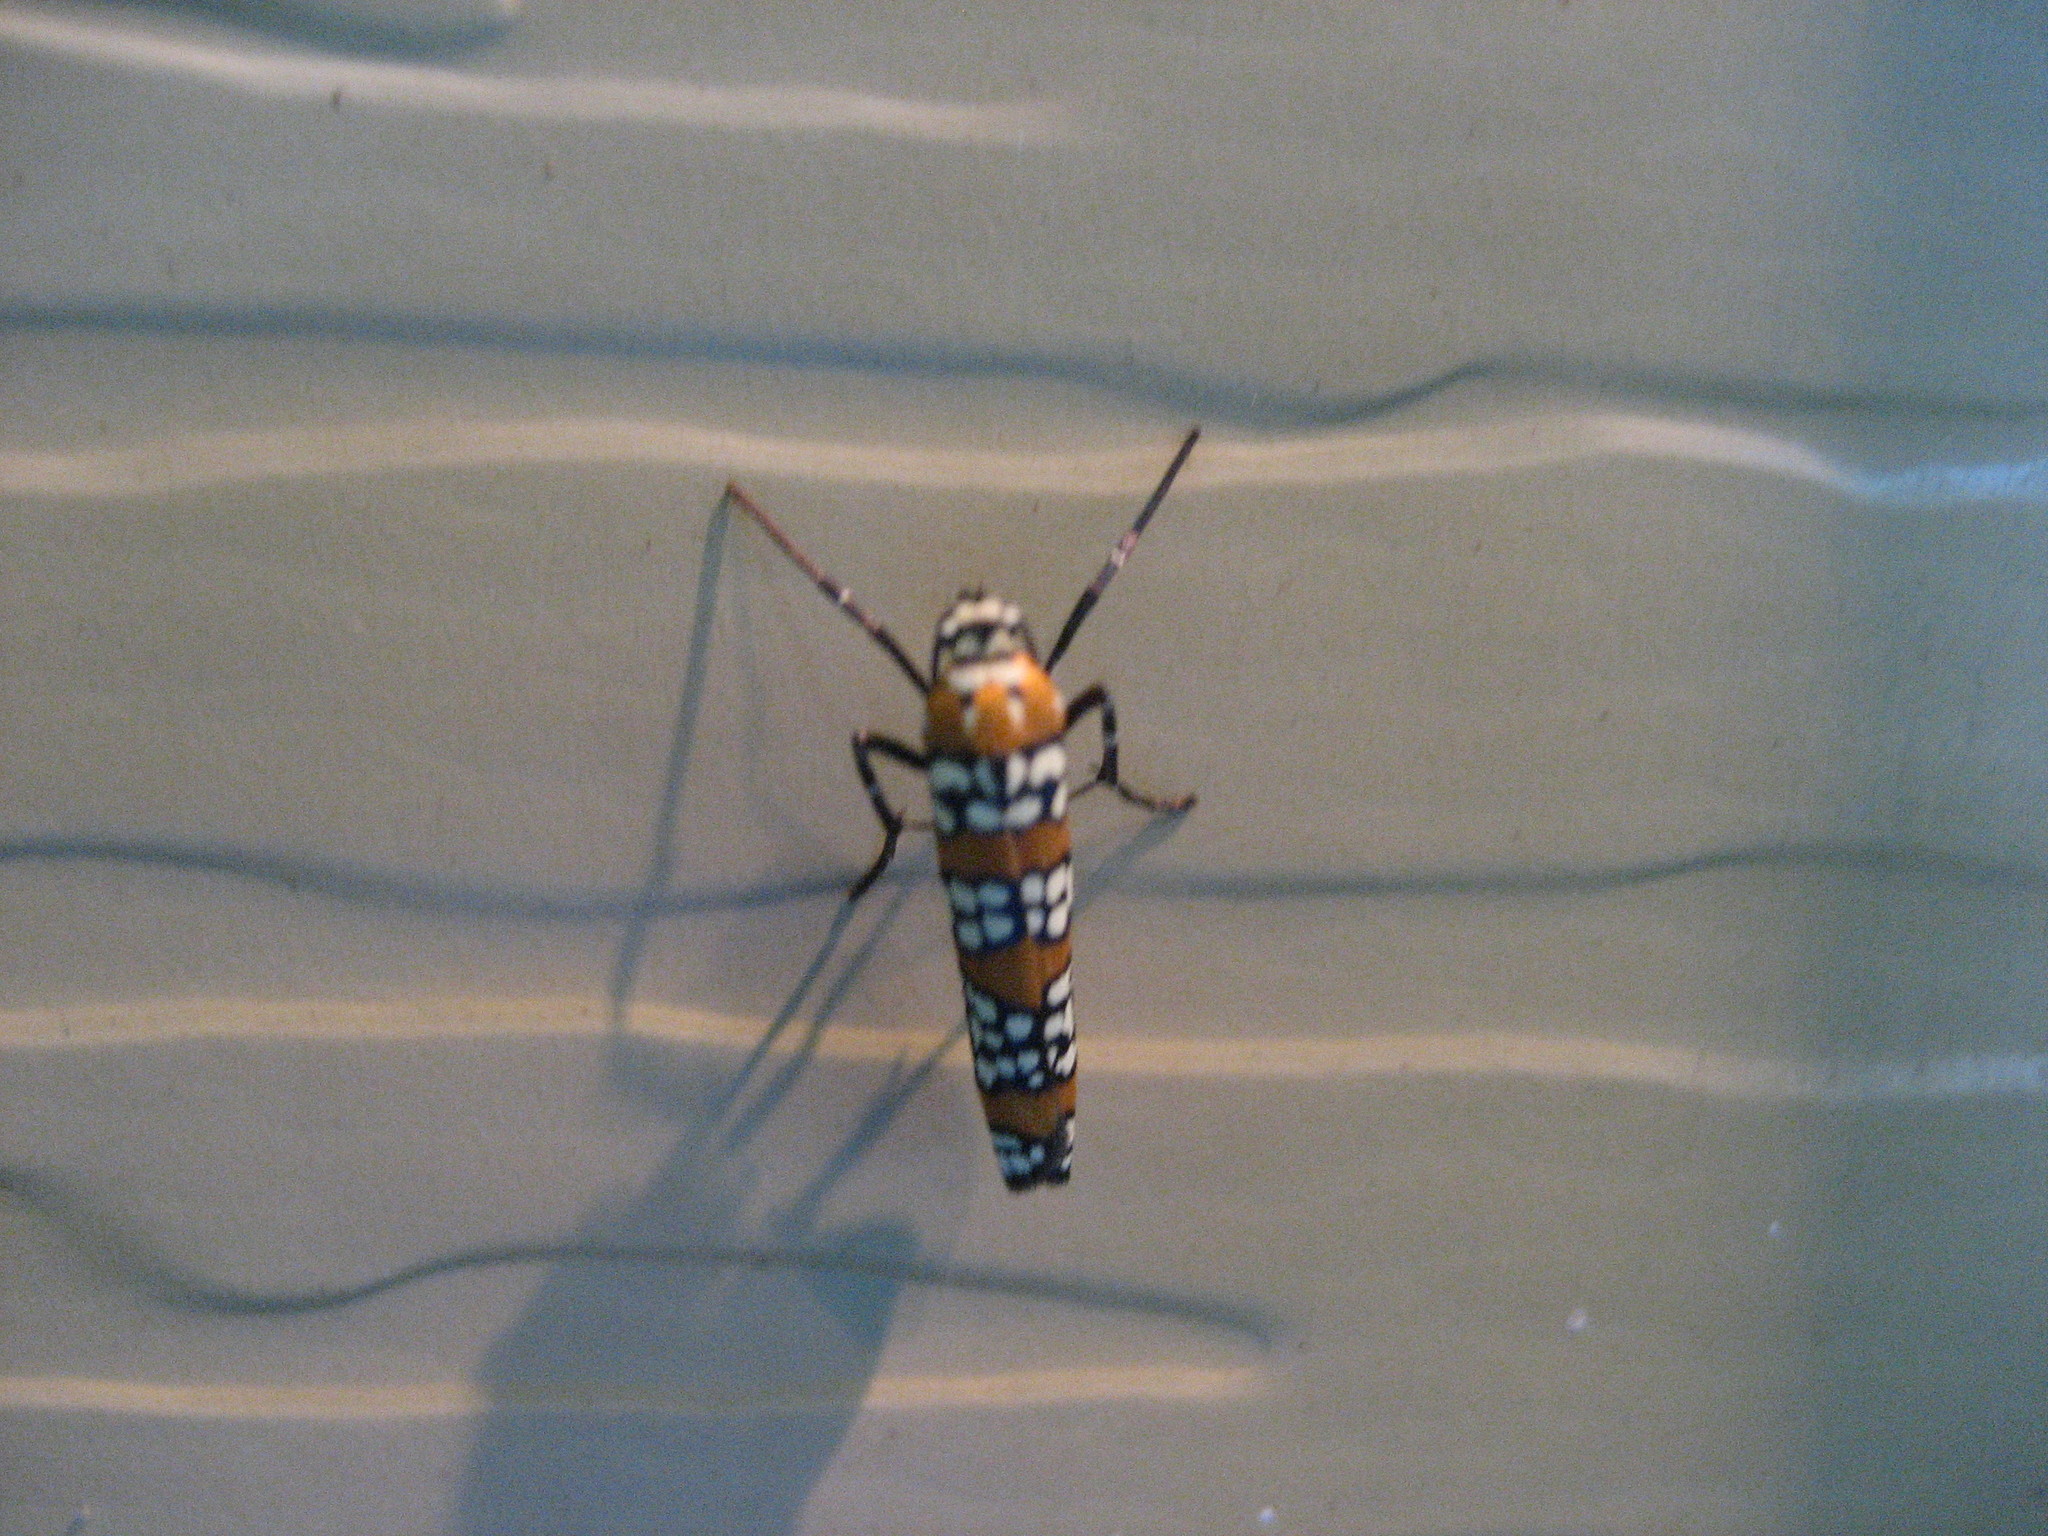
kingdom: Animalia
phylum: Arthropoda
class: Insecta
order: Lepidoptera
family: Attevidae
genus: Atteva
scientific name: Atteva punctella
